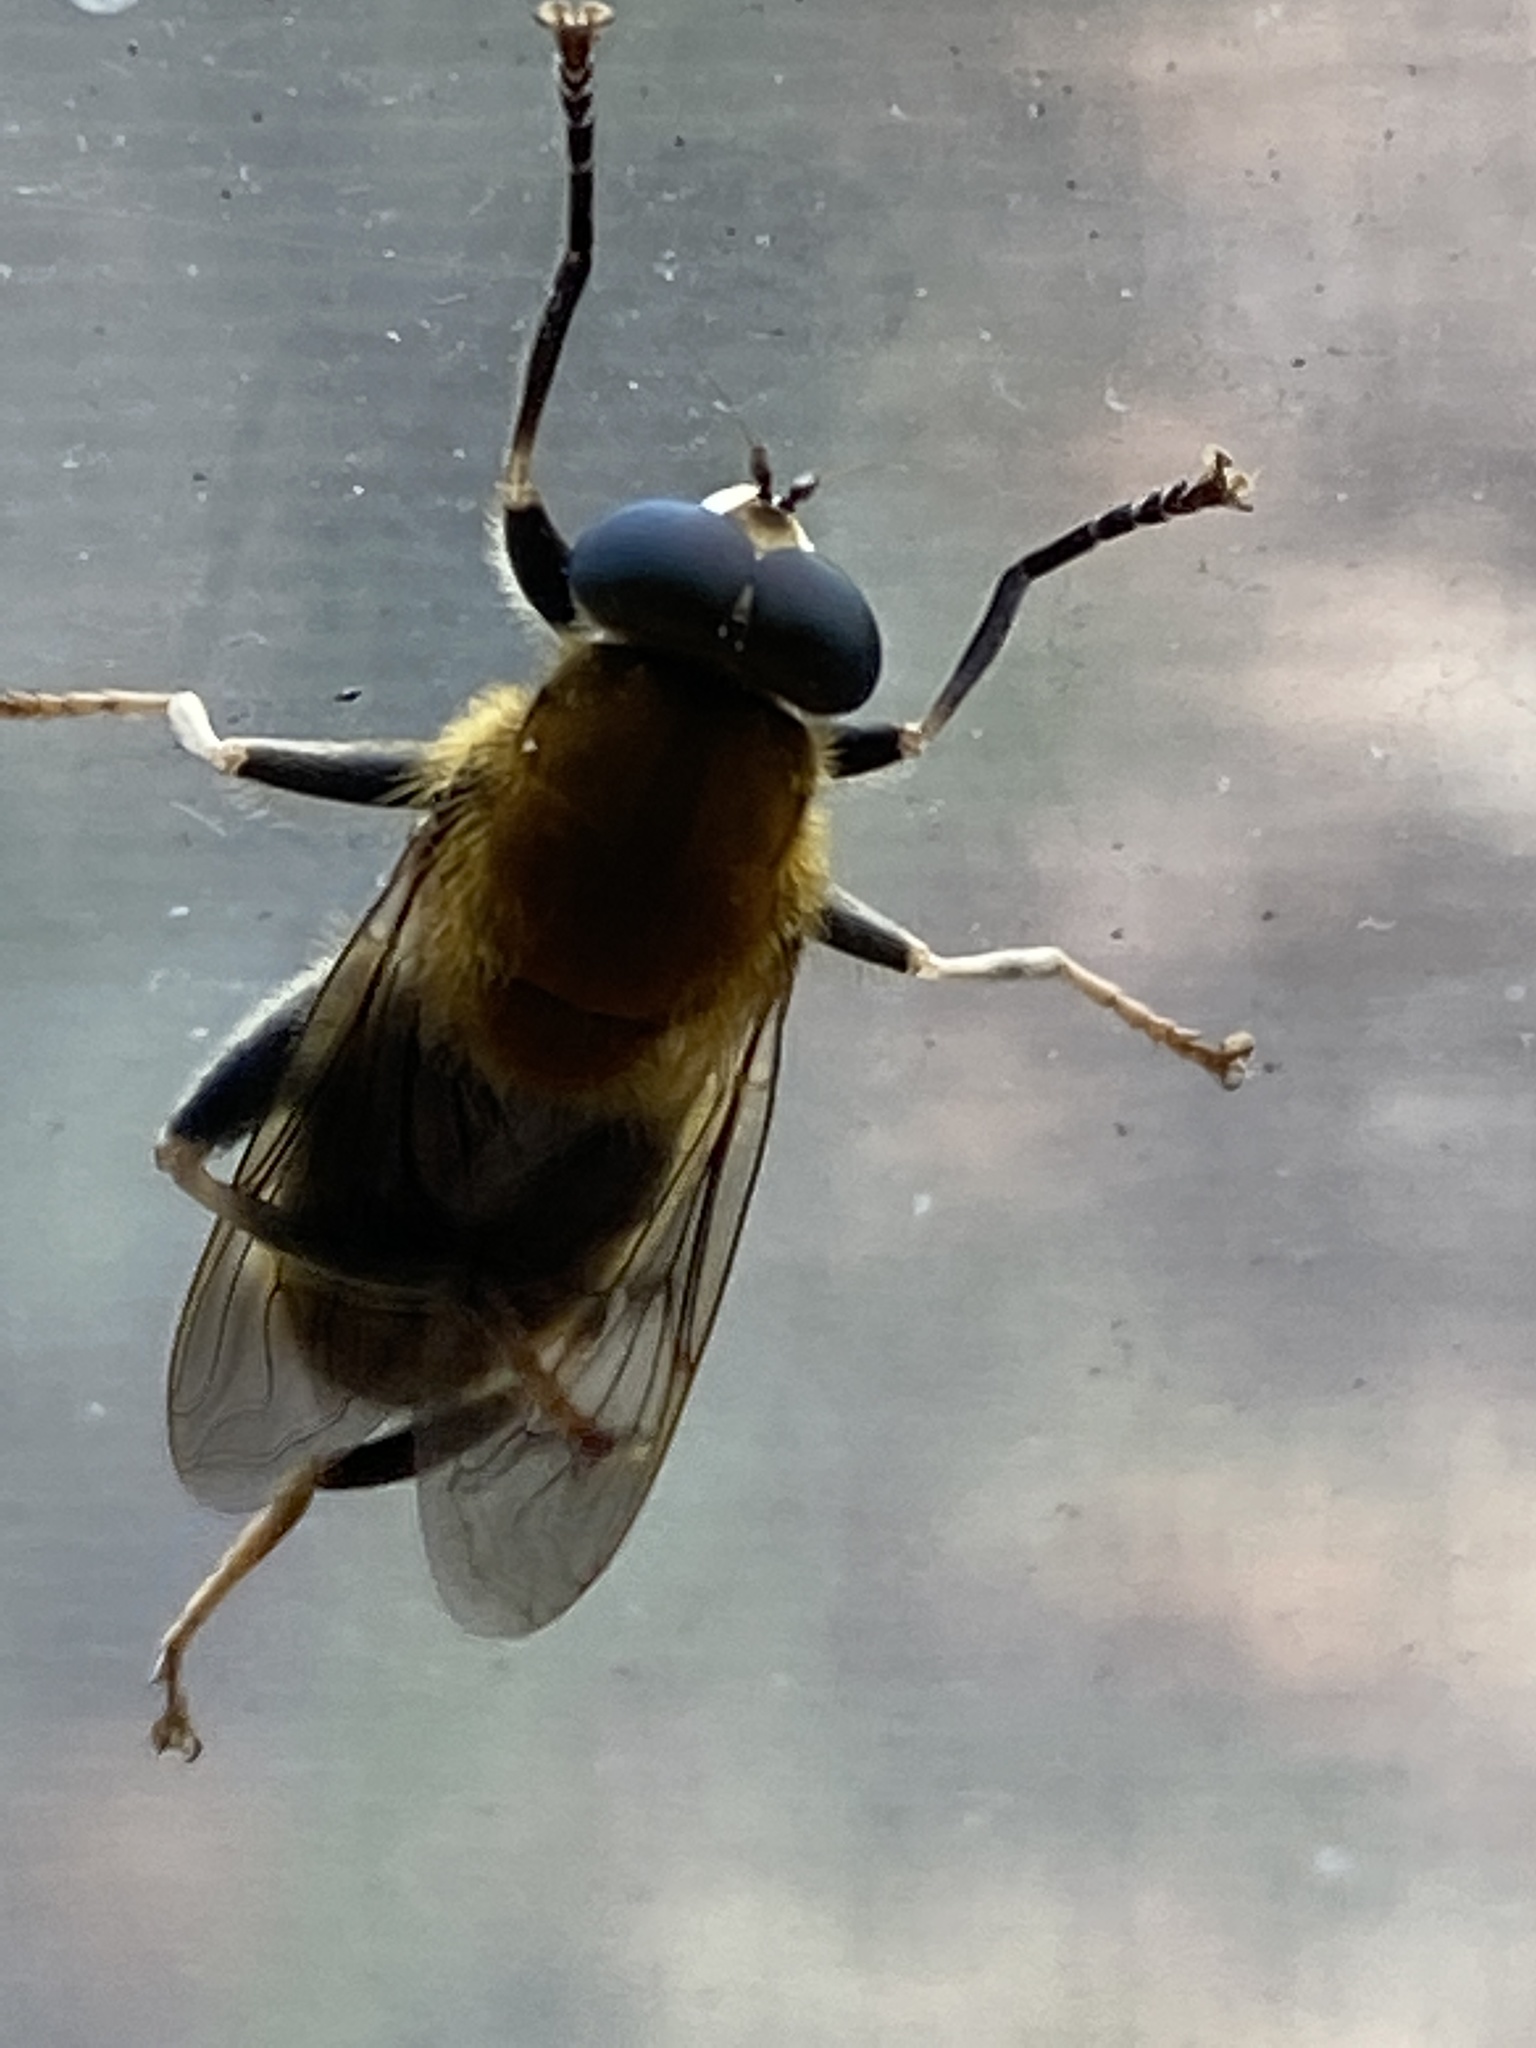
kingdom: Animalia
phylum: Arthropoda
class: Insecta
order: Diptera
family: Syrphidae
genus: Pterallastes
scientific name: Pterallastes thoracicus
